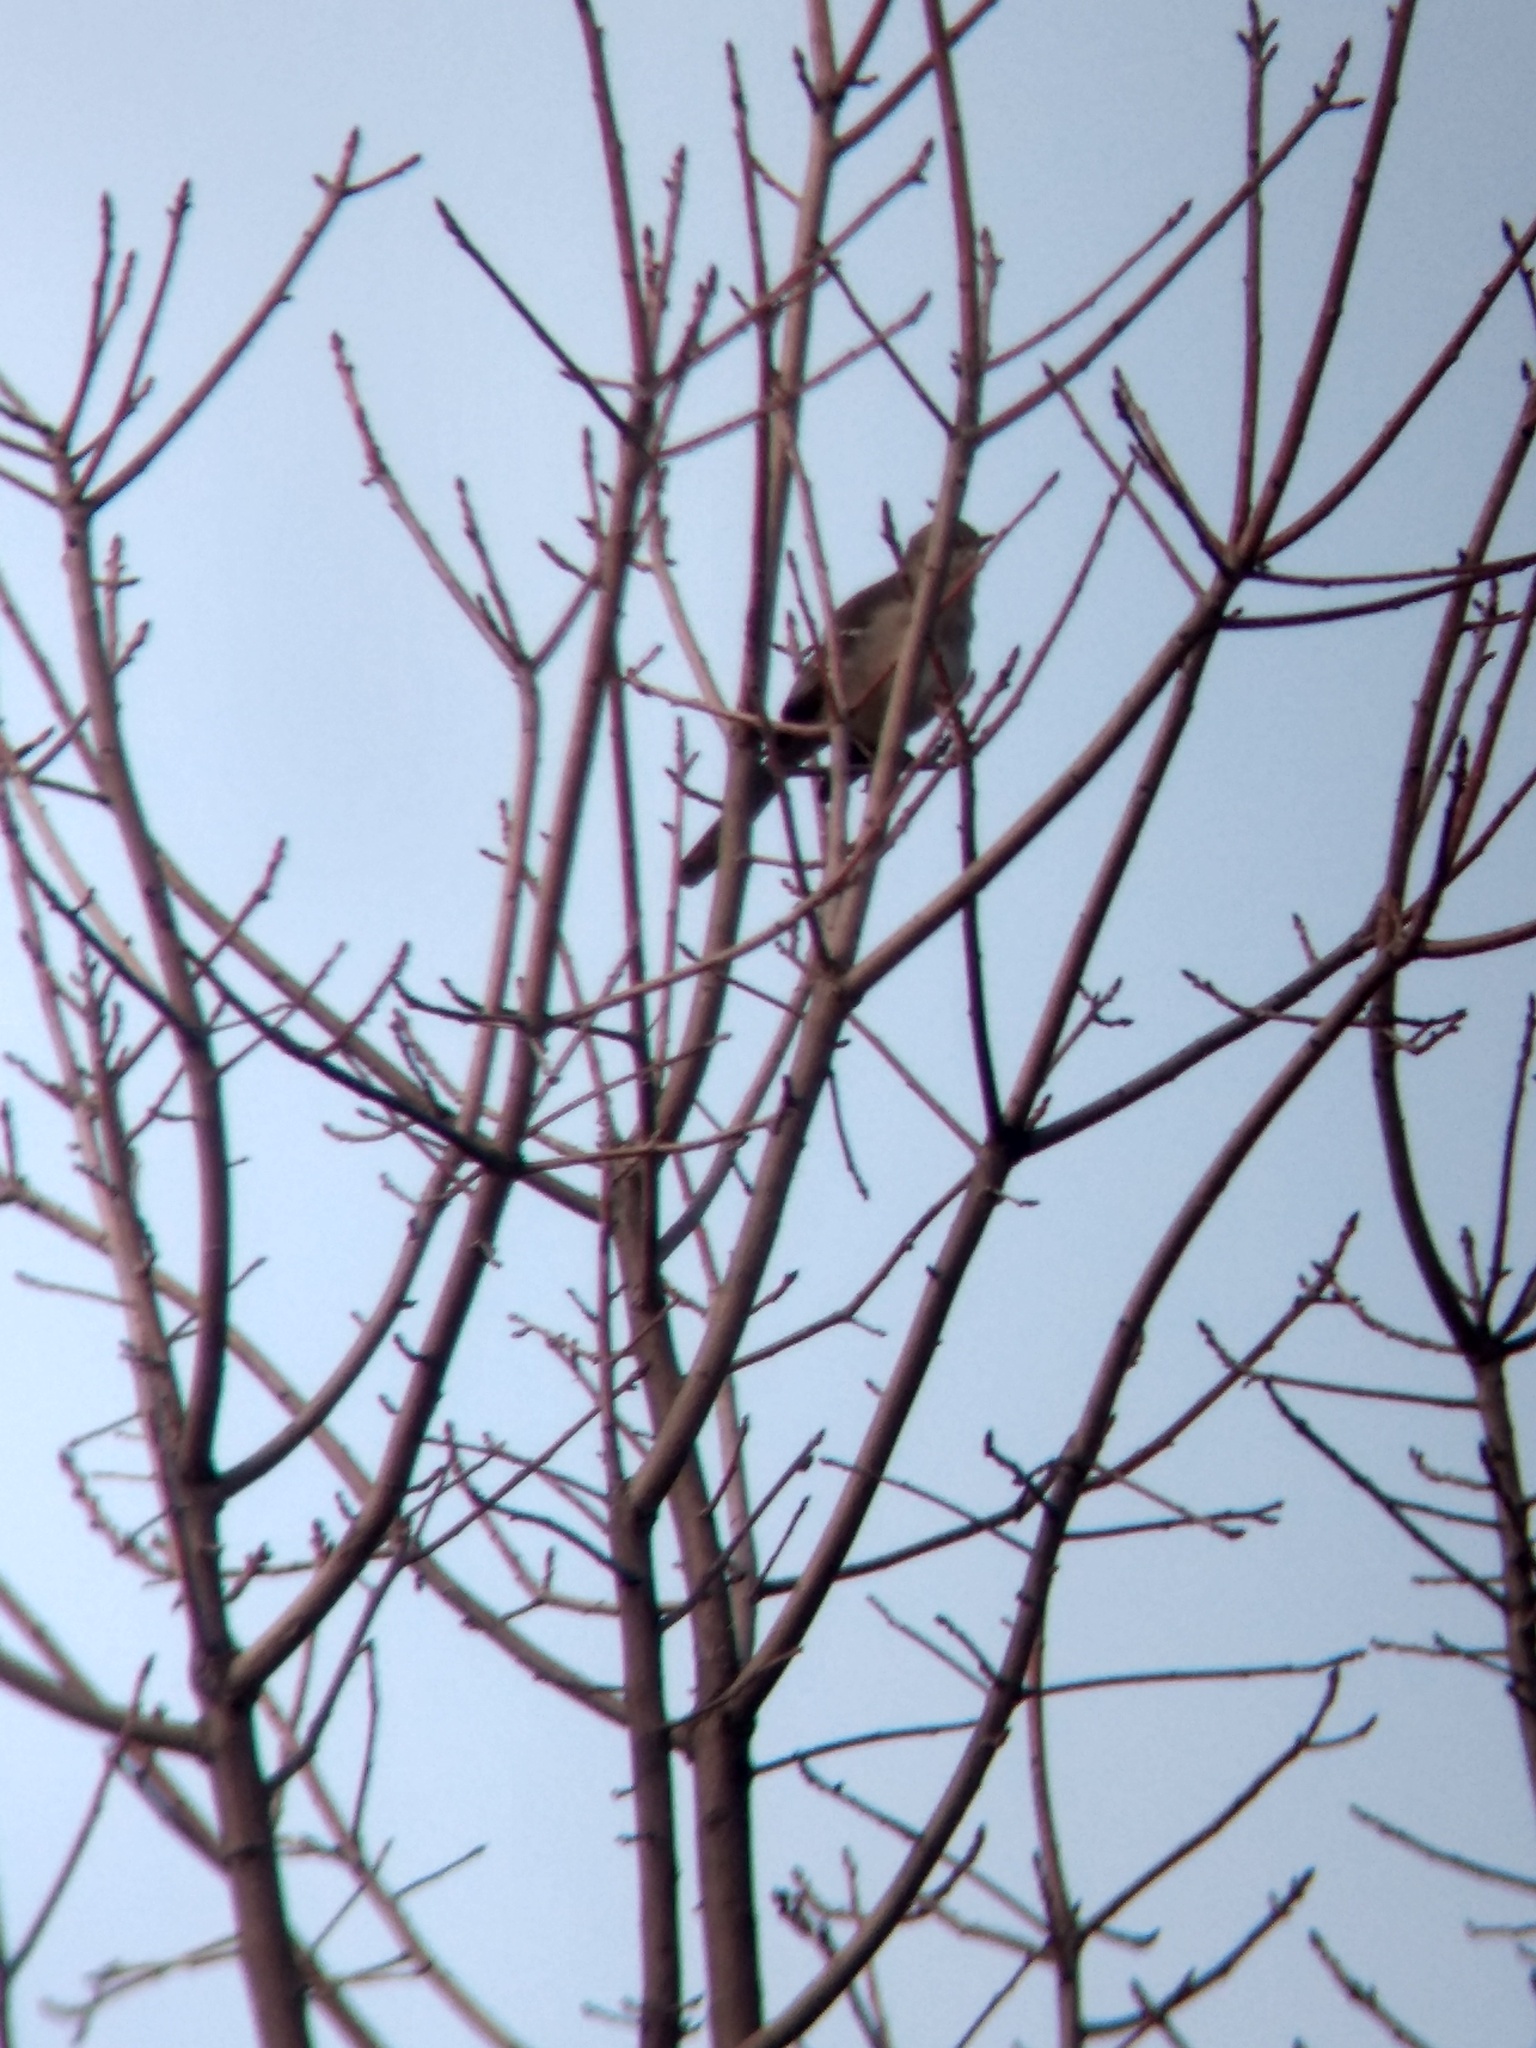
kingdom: Animalia
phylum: Chordata
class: Aves
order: Passeriformes
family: Mimidae
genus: Mimus
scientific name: Mimus polyglottos
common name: Northern mockingbird
